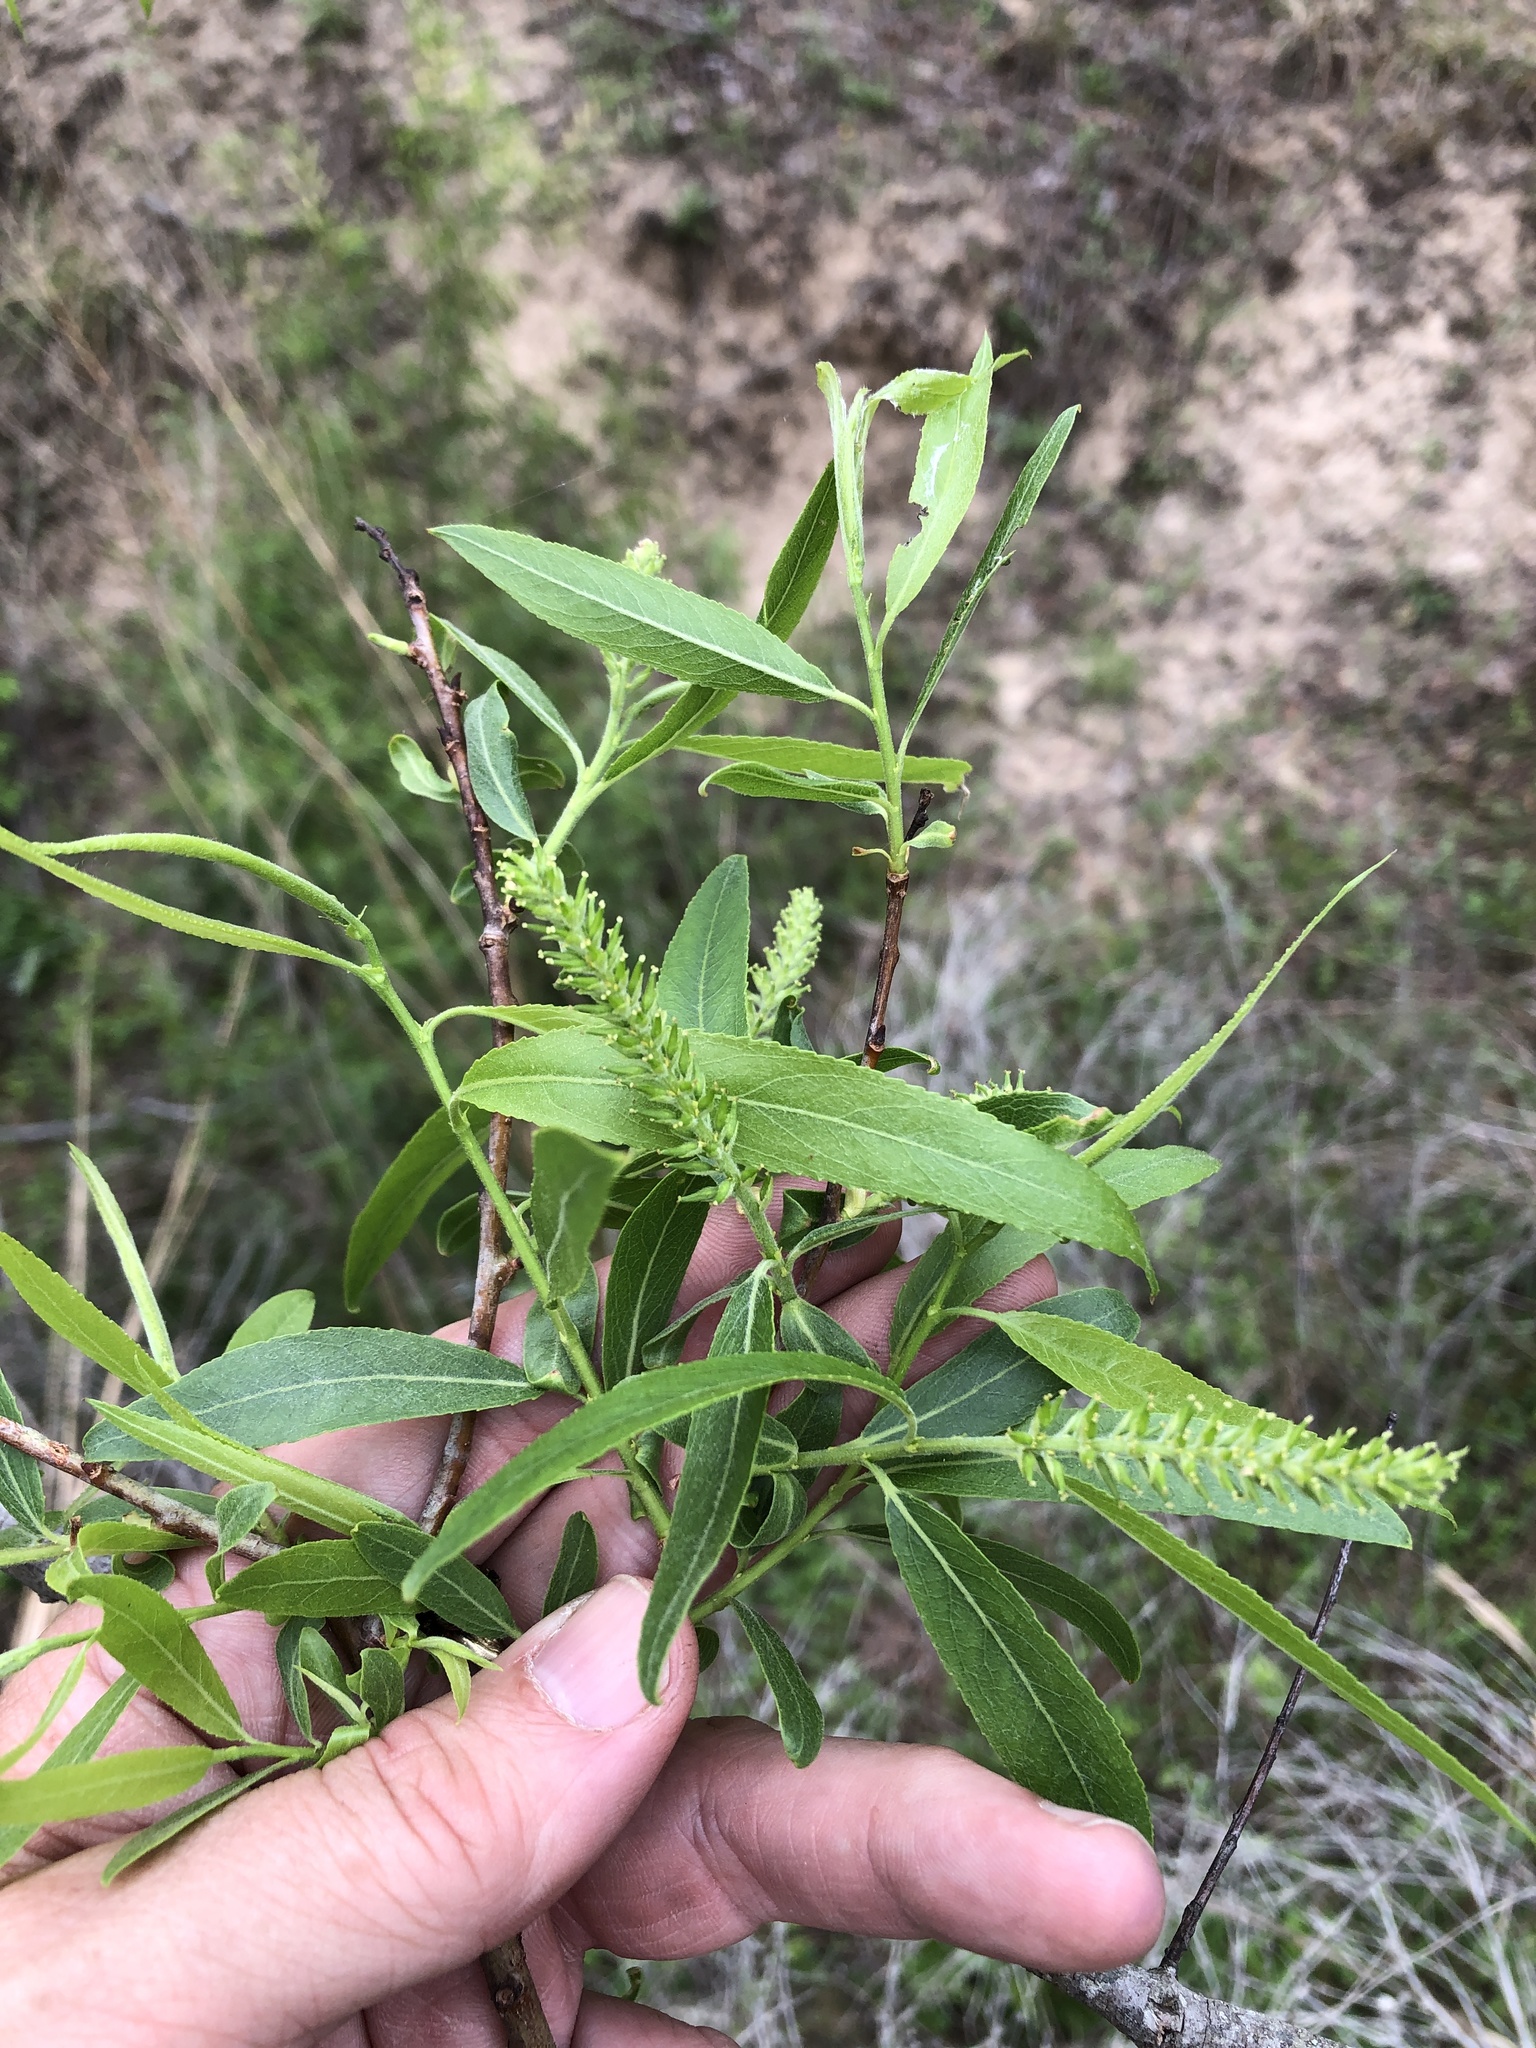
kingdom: Plantae
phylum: Tracheophyta
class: Magnoliopsida
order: Malpighiales
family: Salicaceae
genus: Salix
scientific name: Salix nigra
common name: Black willow
